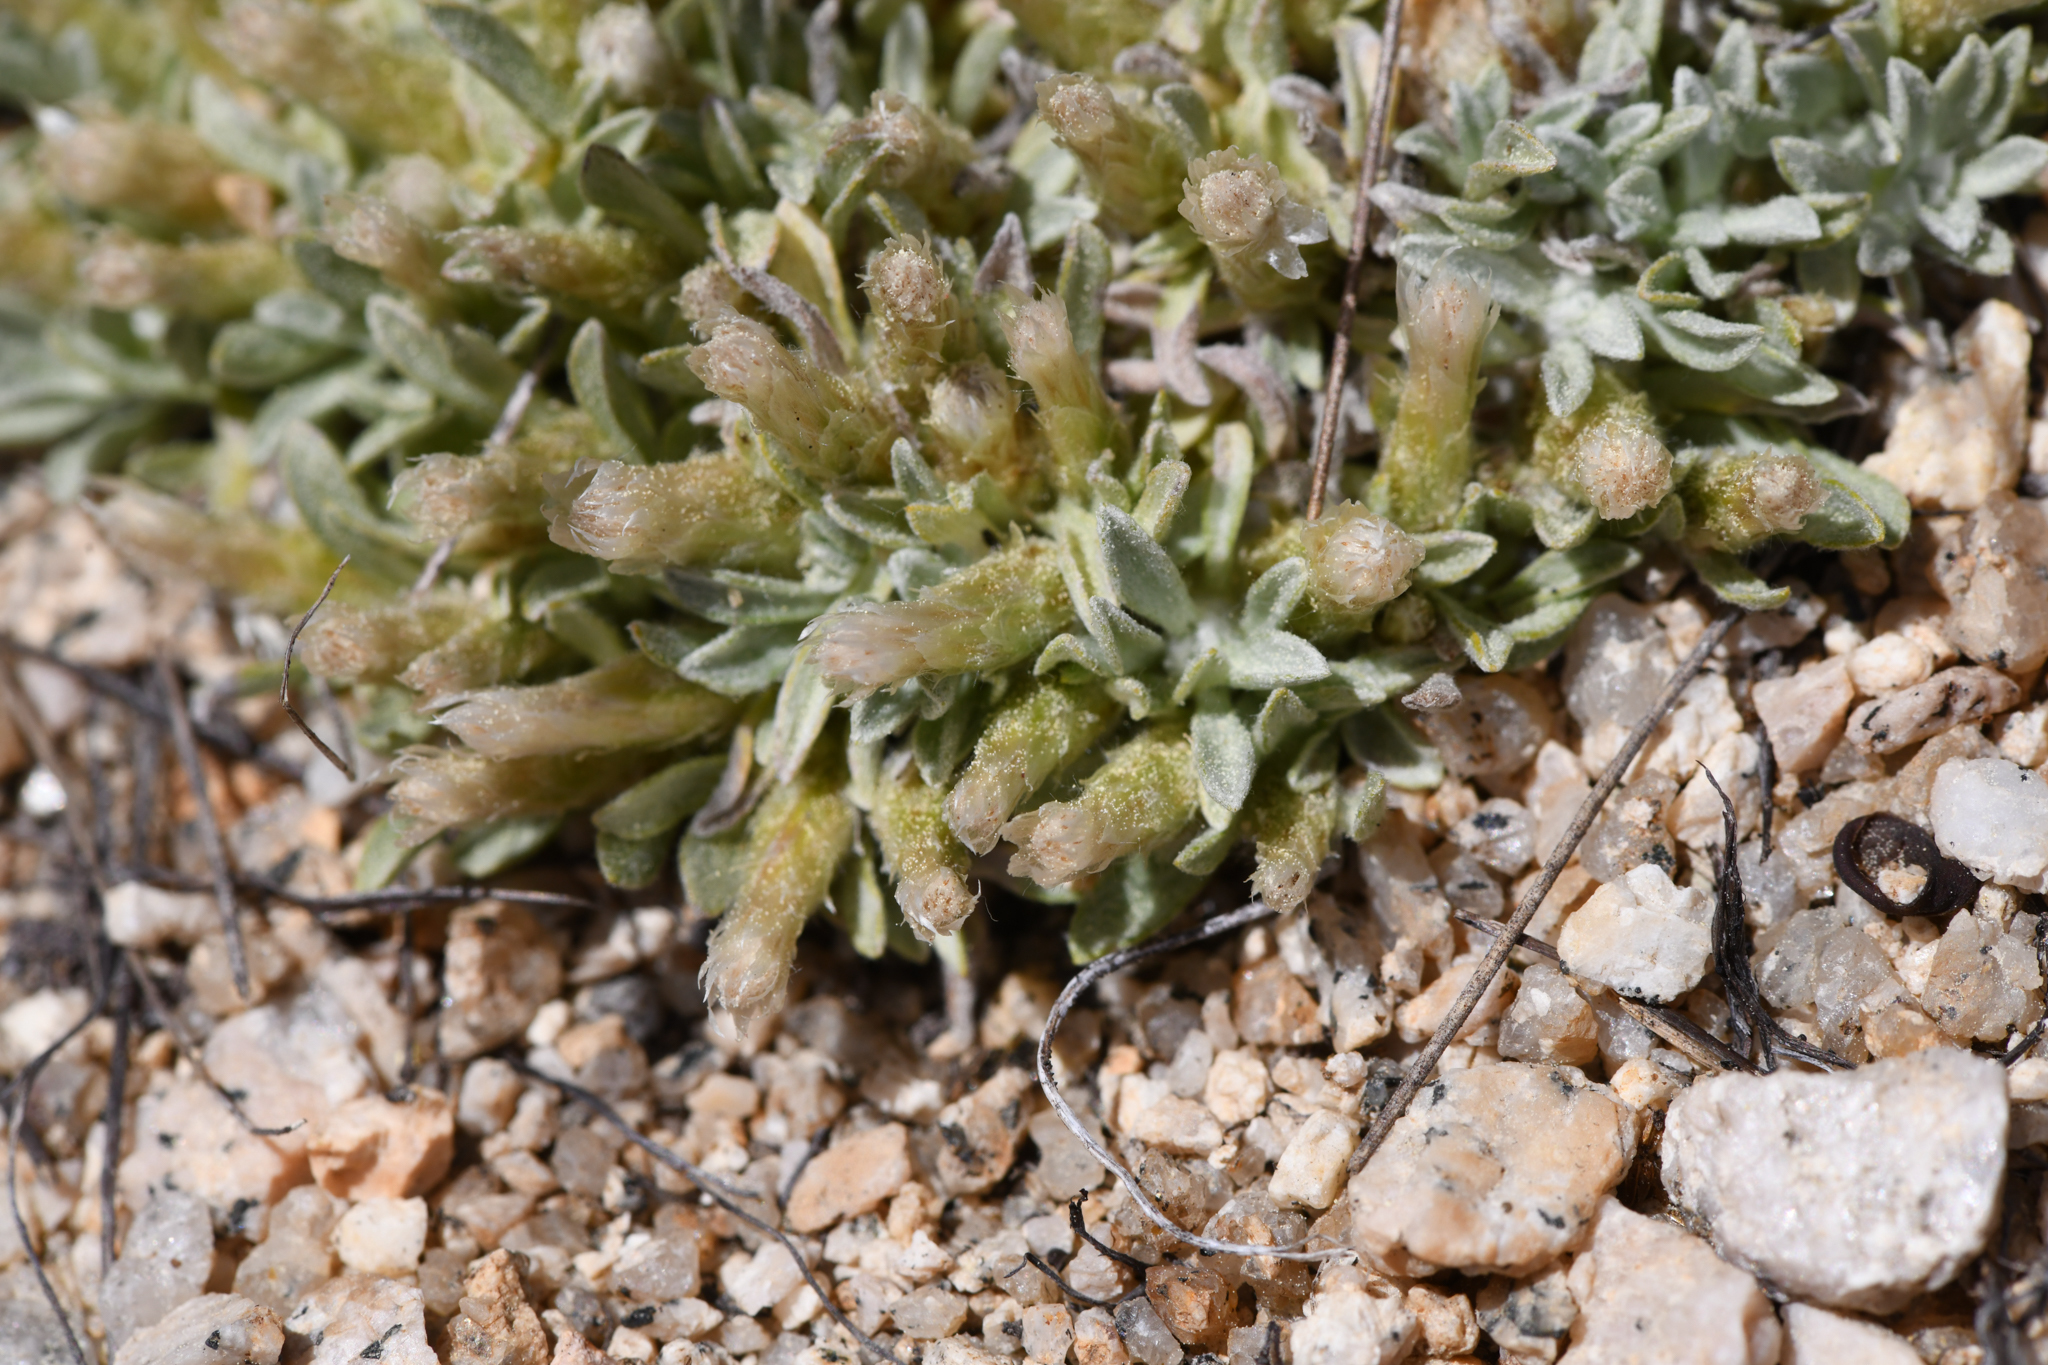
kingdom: Plantae
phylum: Tracheophyta
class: Magnoliopsida
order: Asterales
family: Asteraceae
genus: Antennaria
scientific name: Antennaria dimorpha
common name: Cushion pussytoes
